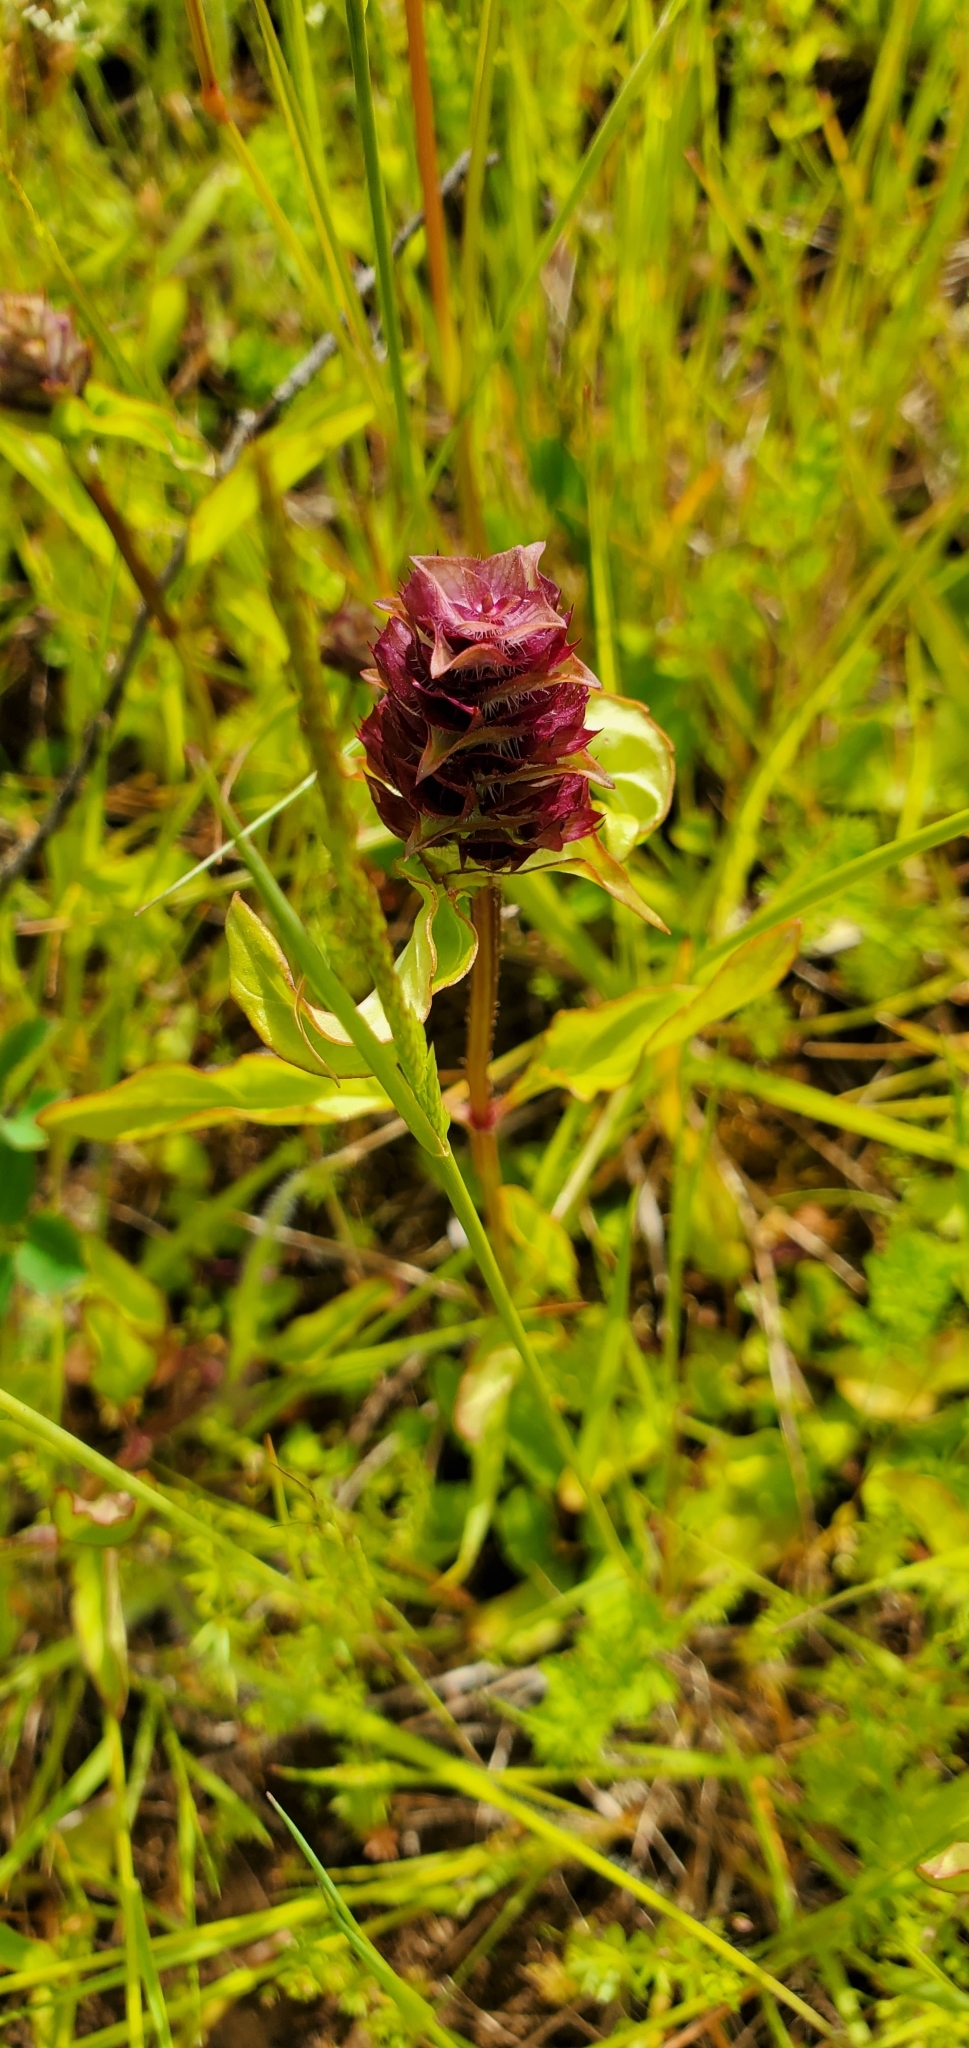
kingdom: Plantae
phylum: Tracheophyta
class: Magnoliopsida
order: Lamiales
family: Lamiaceae
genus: Prunella
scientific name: Prunella vulgaris
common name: Heal-all
